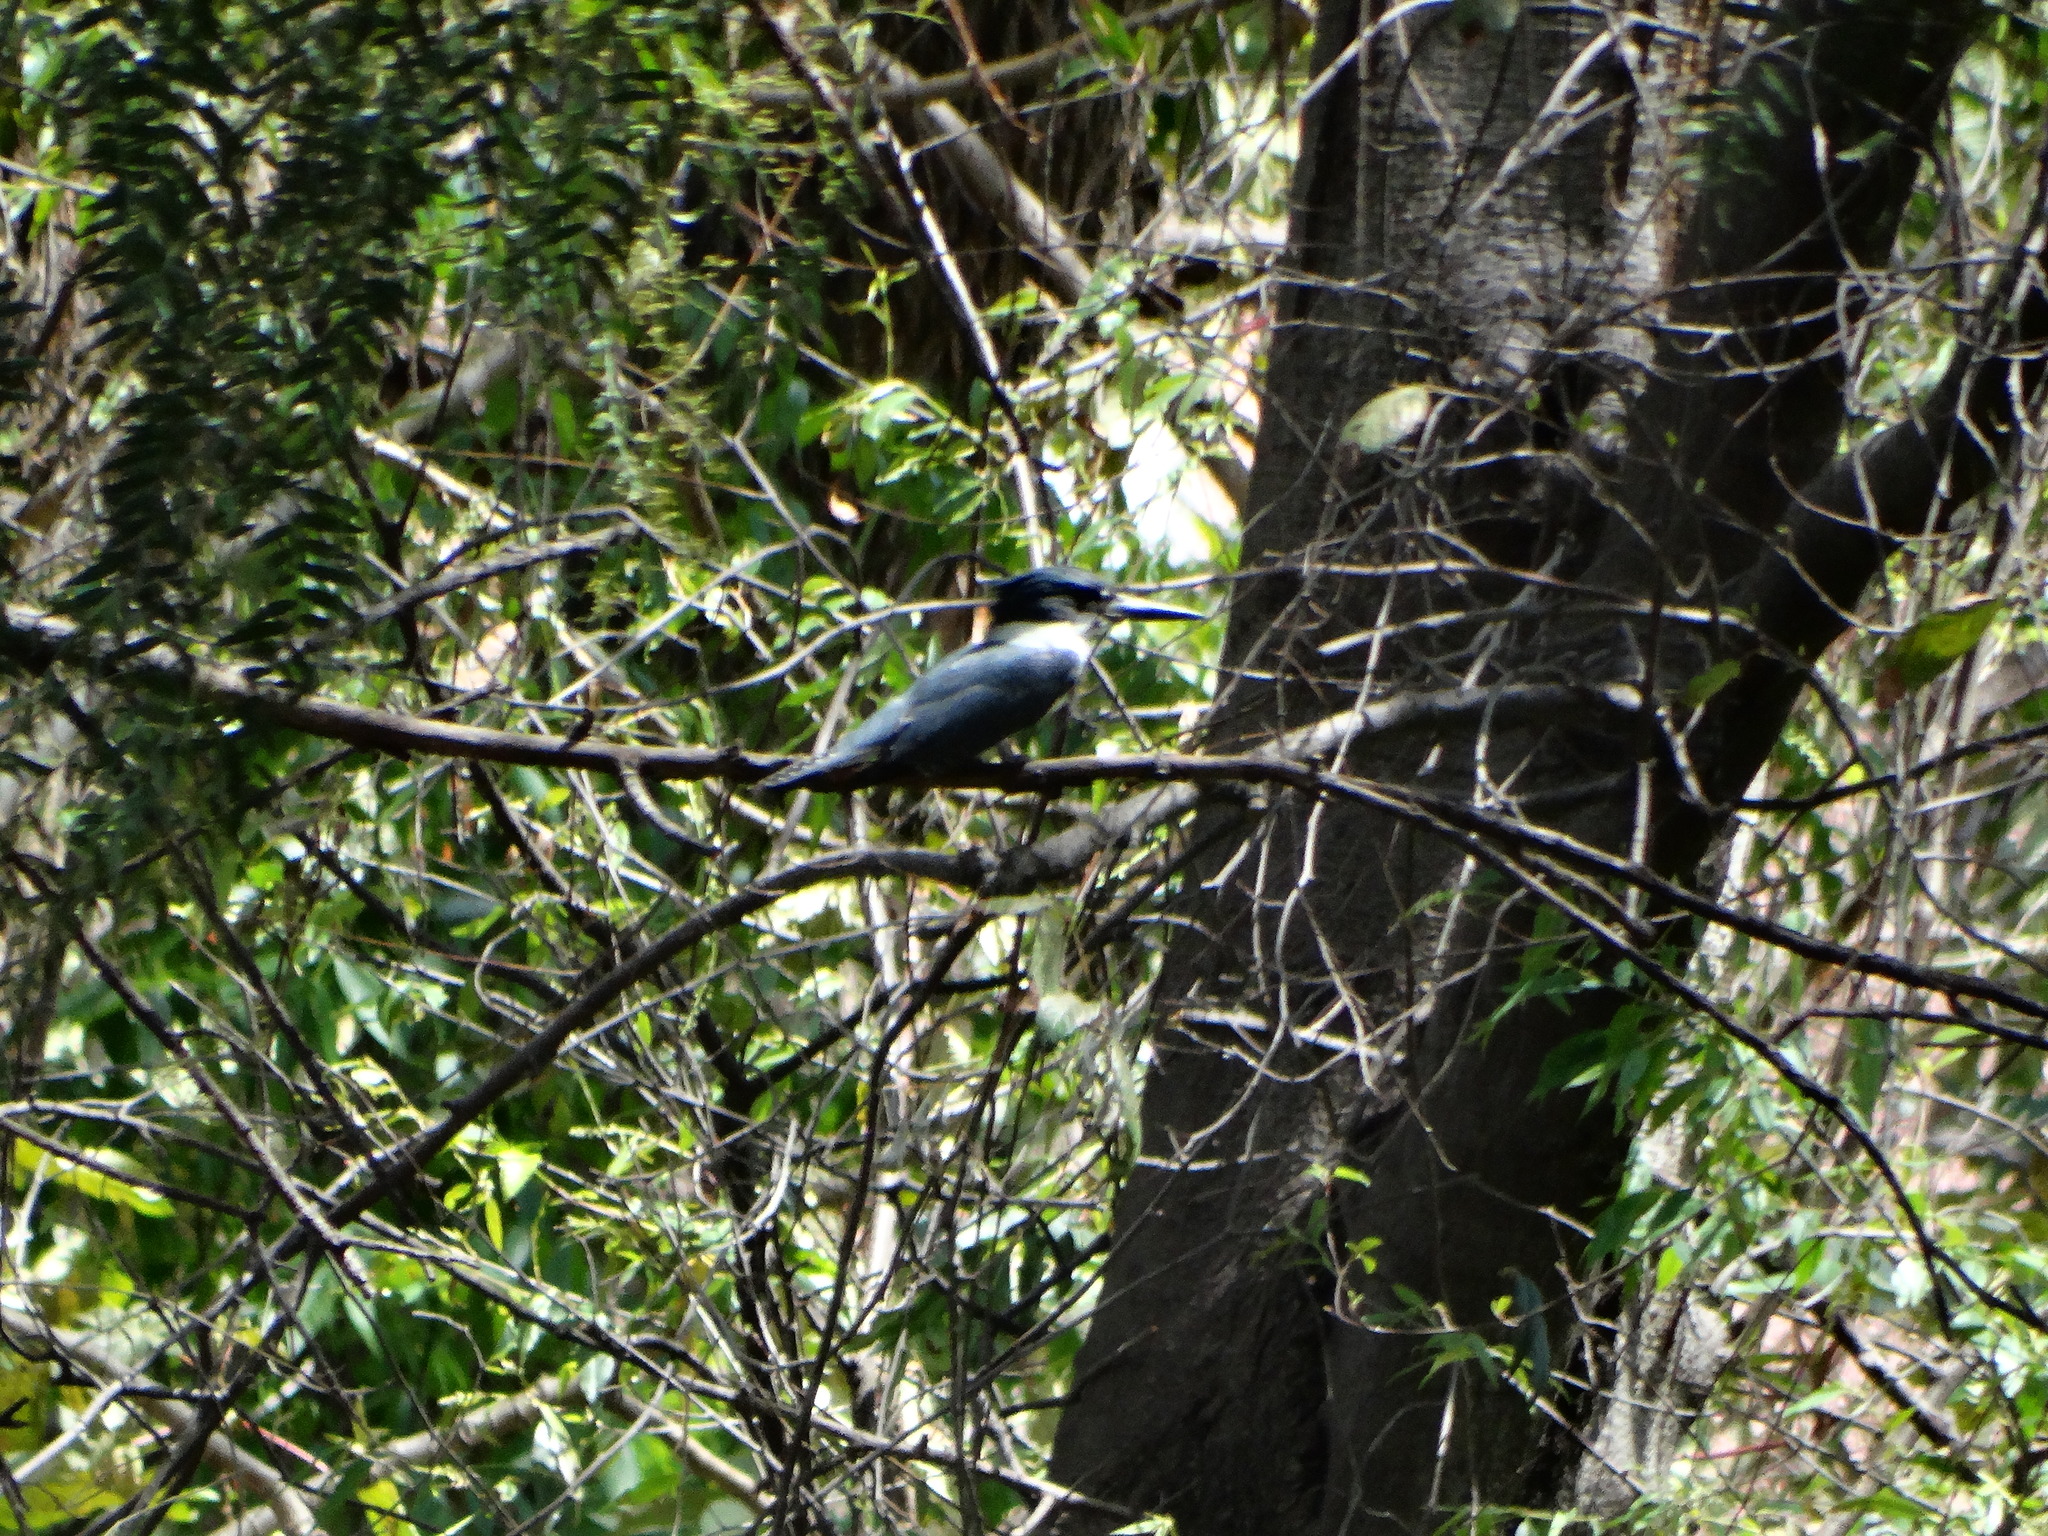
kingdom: Animalia
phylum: Chordata
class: Aves
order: Coraciiformes
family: Alcedinidae
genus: Megaceryle
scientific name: Megaceryle alcyon
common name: Belted kingfisher
